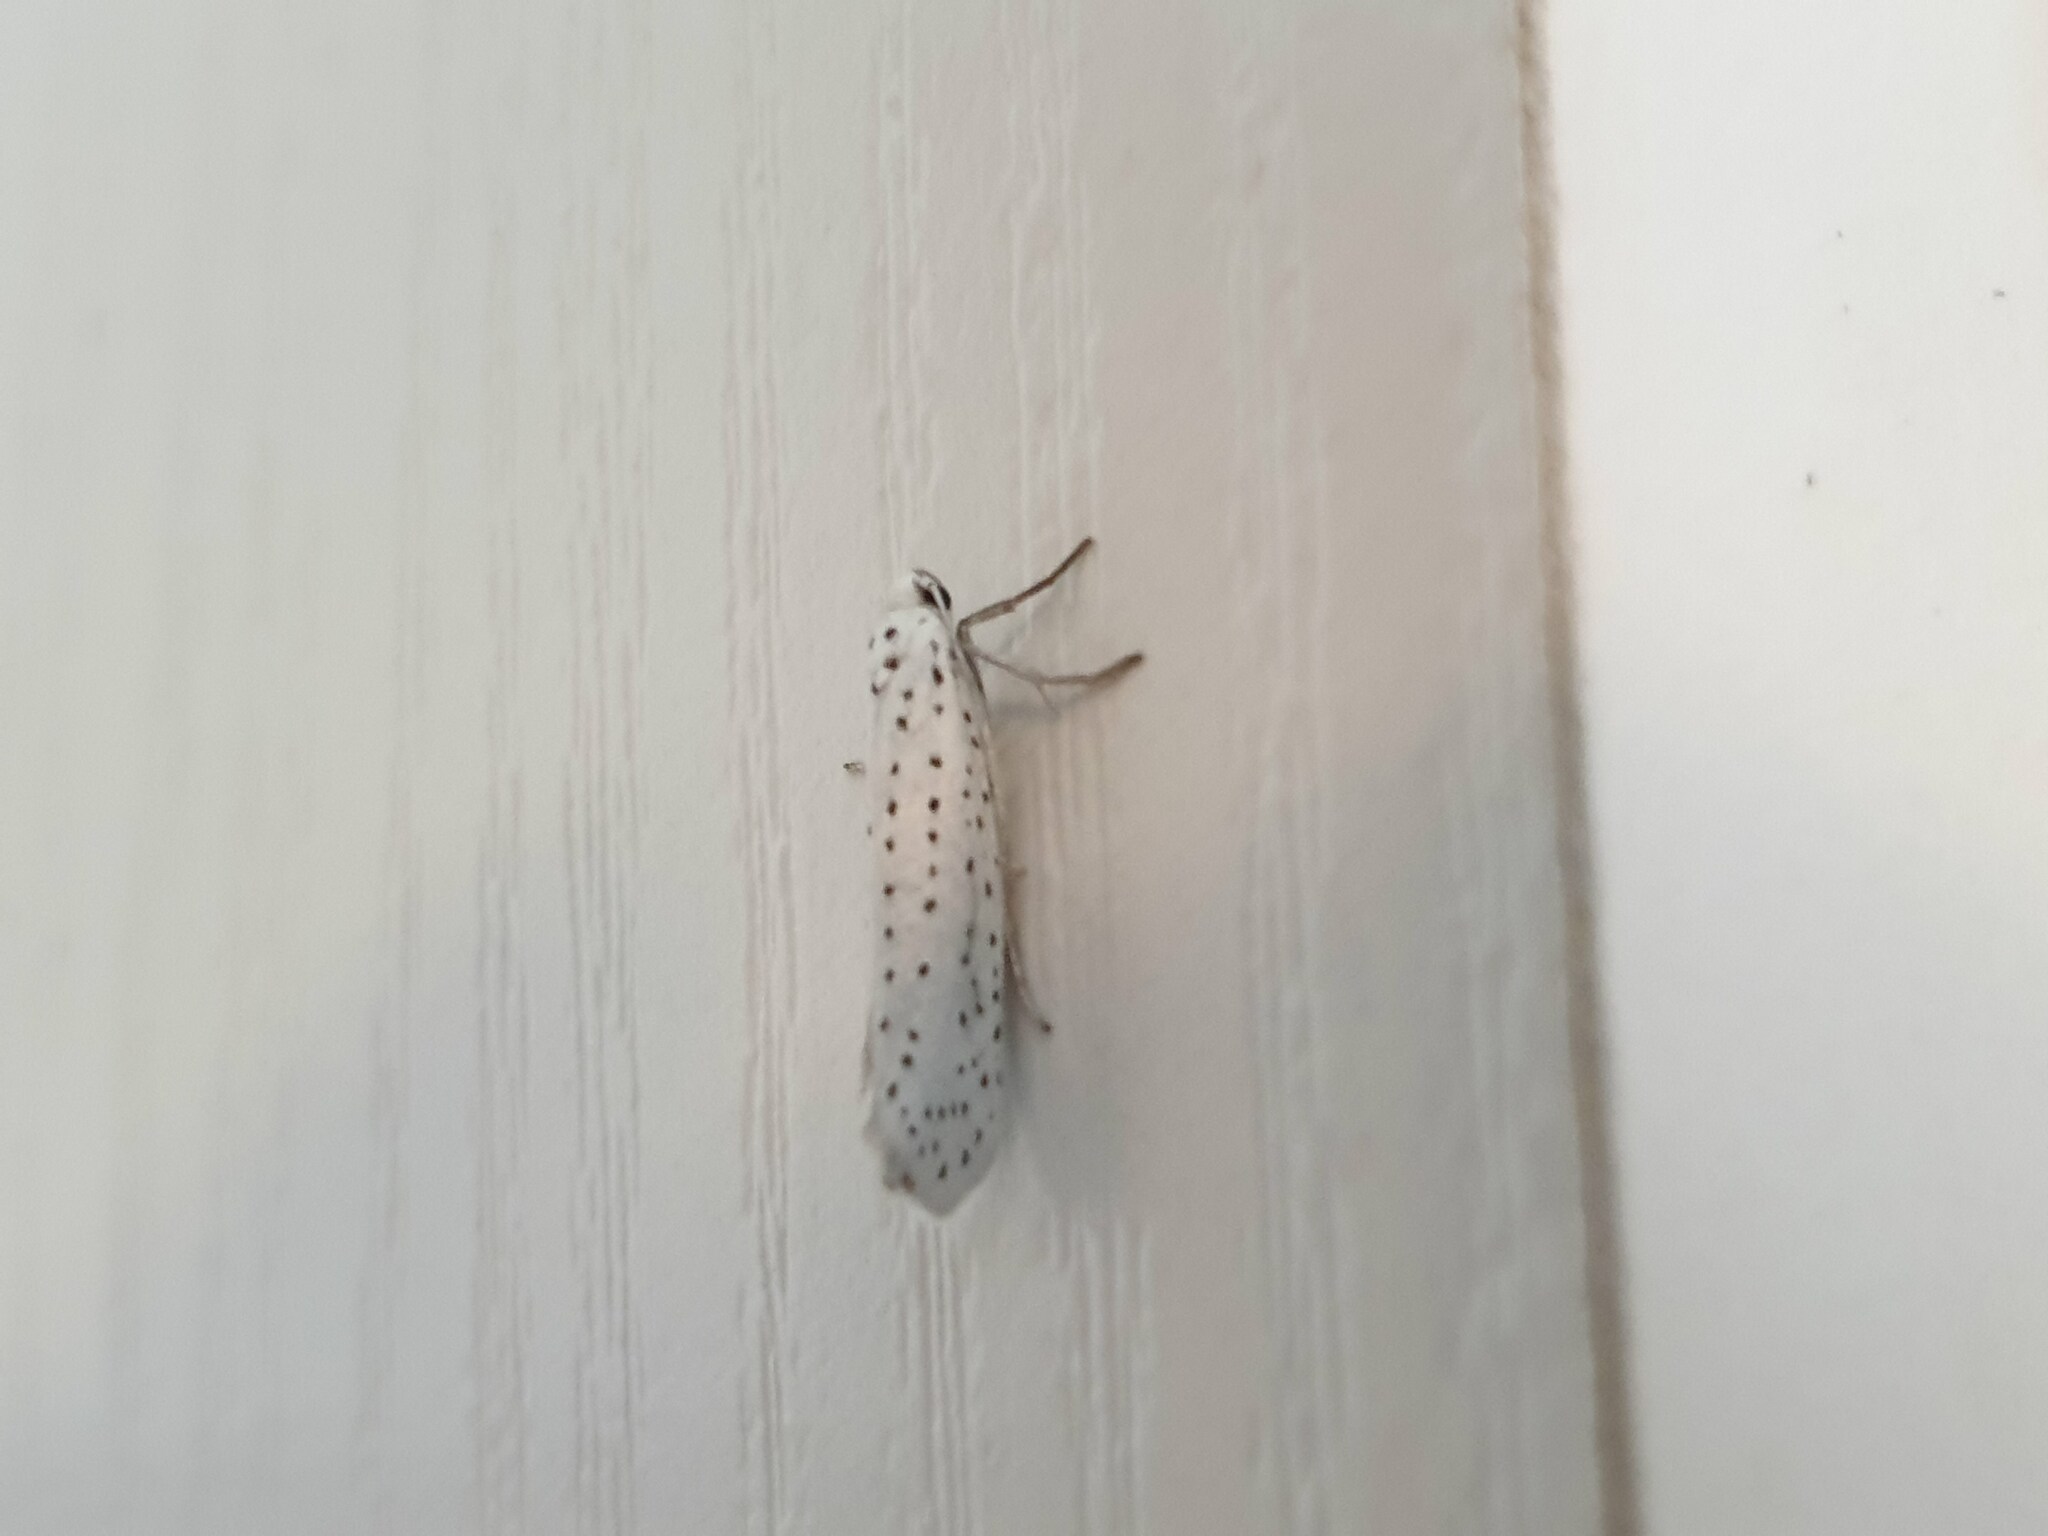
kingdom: Animalia
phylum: Arthropoda
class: Insecta
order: Lepidoptera
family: Yponomeutidae
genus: Yponomeuta
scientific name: Yponomeuta evonymella
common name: Bird-cherry ermine
